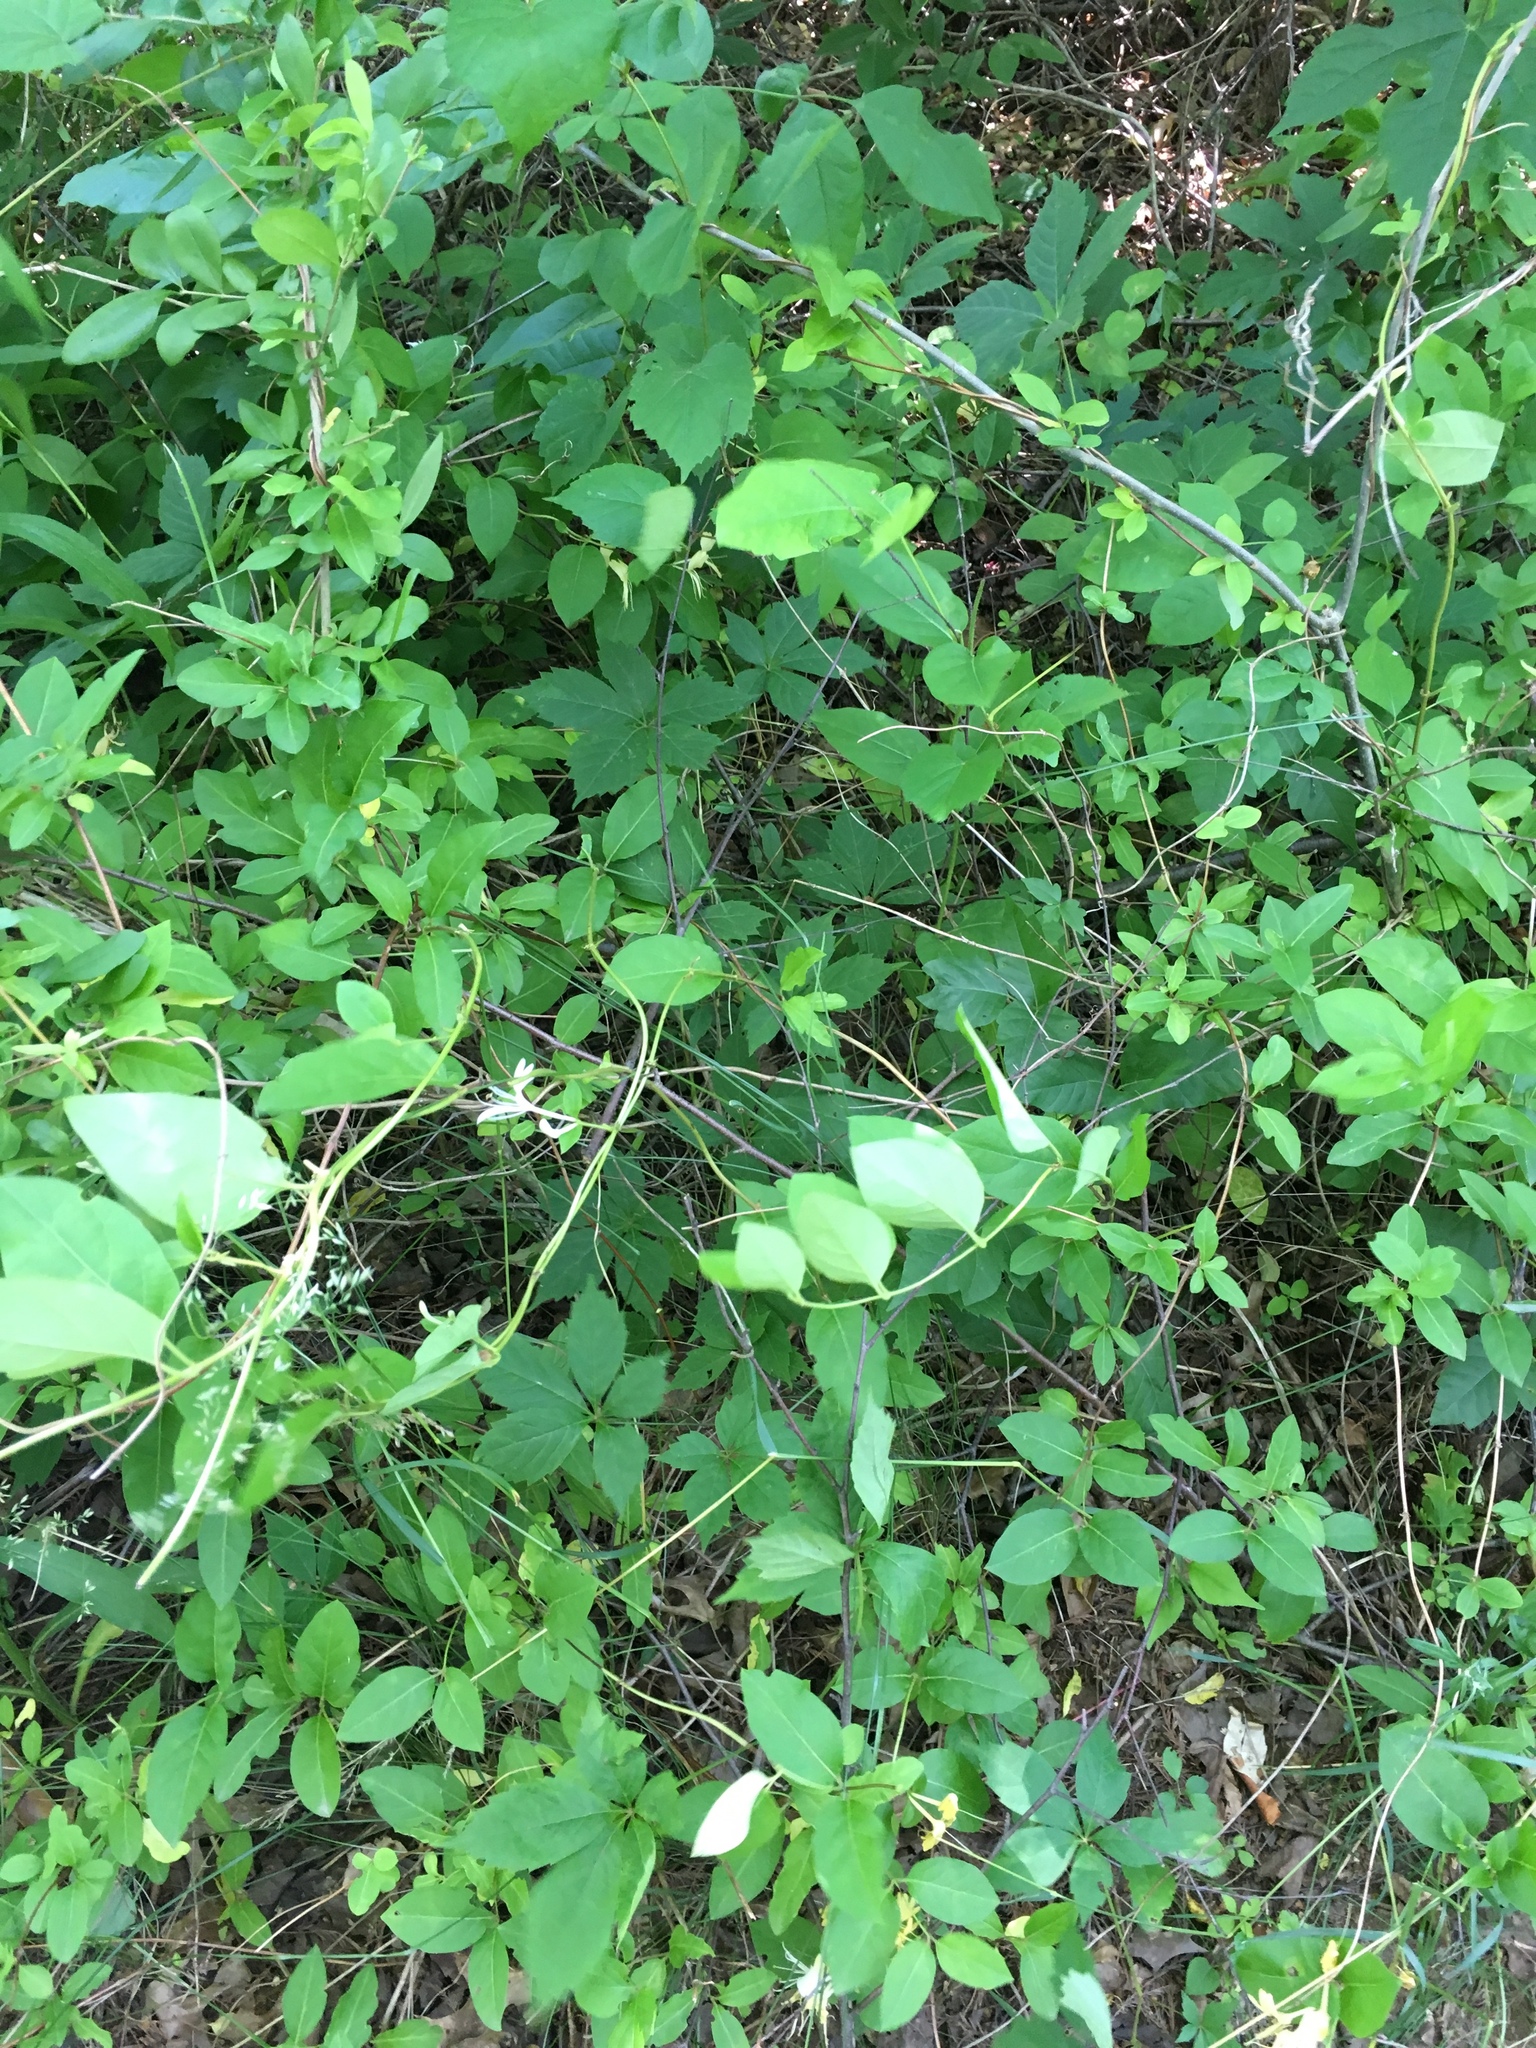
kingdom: Plantae
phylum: Tracheophyta
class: Magnoliopsida
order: Dipsacales
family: Caprifoliaceae
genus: Lonicera
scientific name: Lonicera japonica
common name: Japanese honeysuckle
